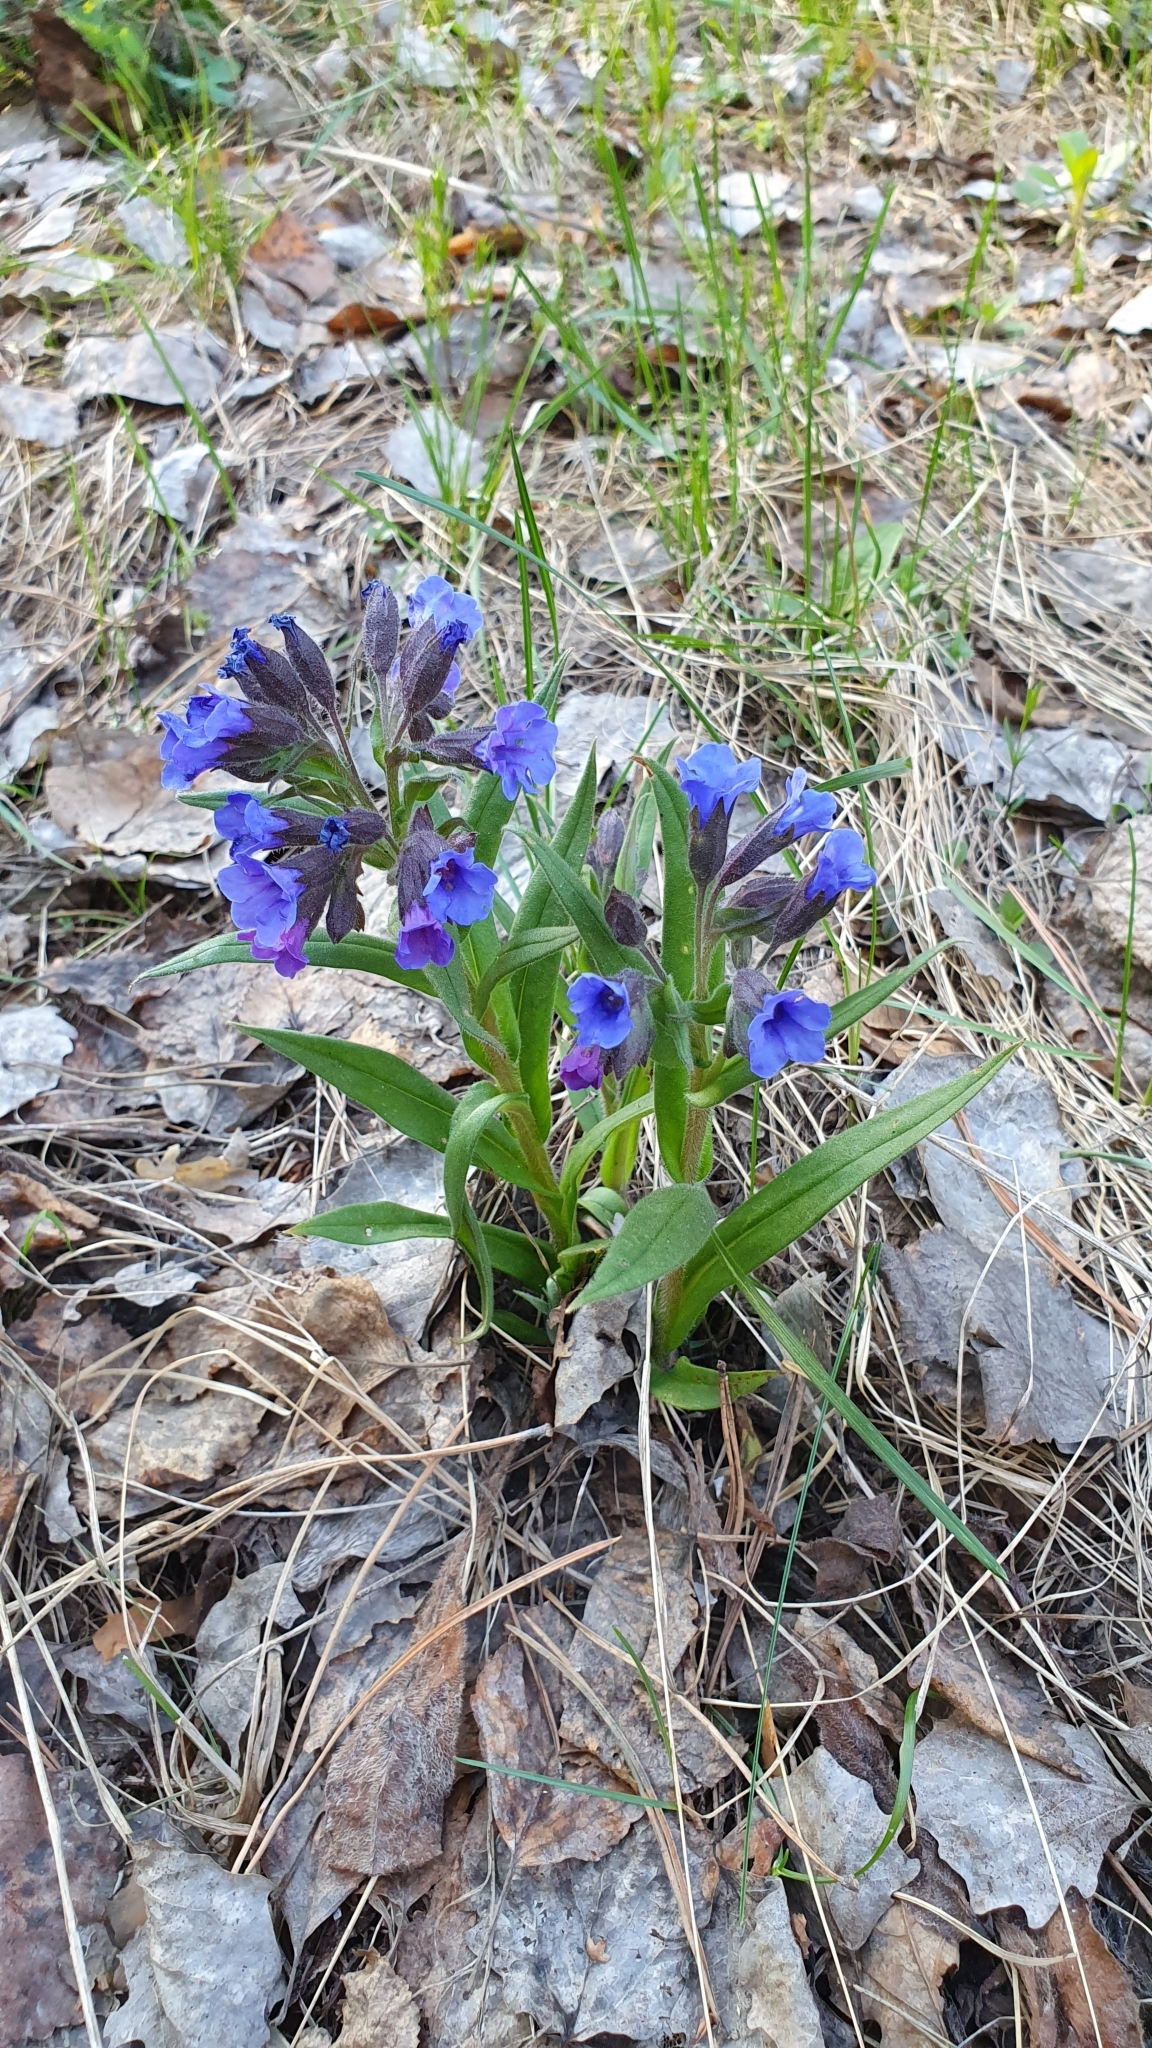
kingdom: Plantae
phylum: Tracheophyta
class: Magnoliopsida
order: Boraginales
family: Boraginaceae
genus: Pulmonaria
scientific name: Pulmonaria angustifolia
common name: Blue cowslip
